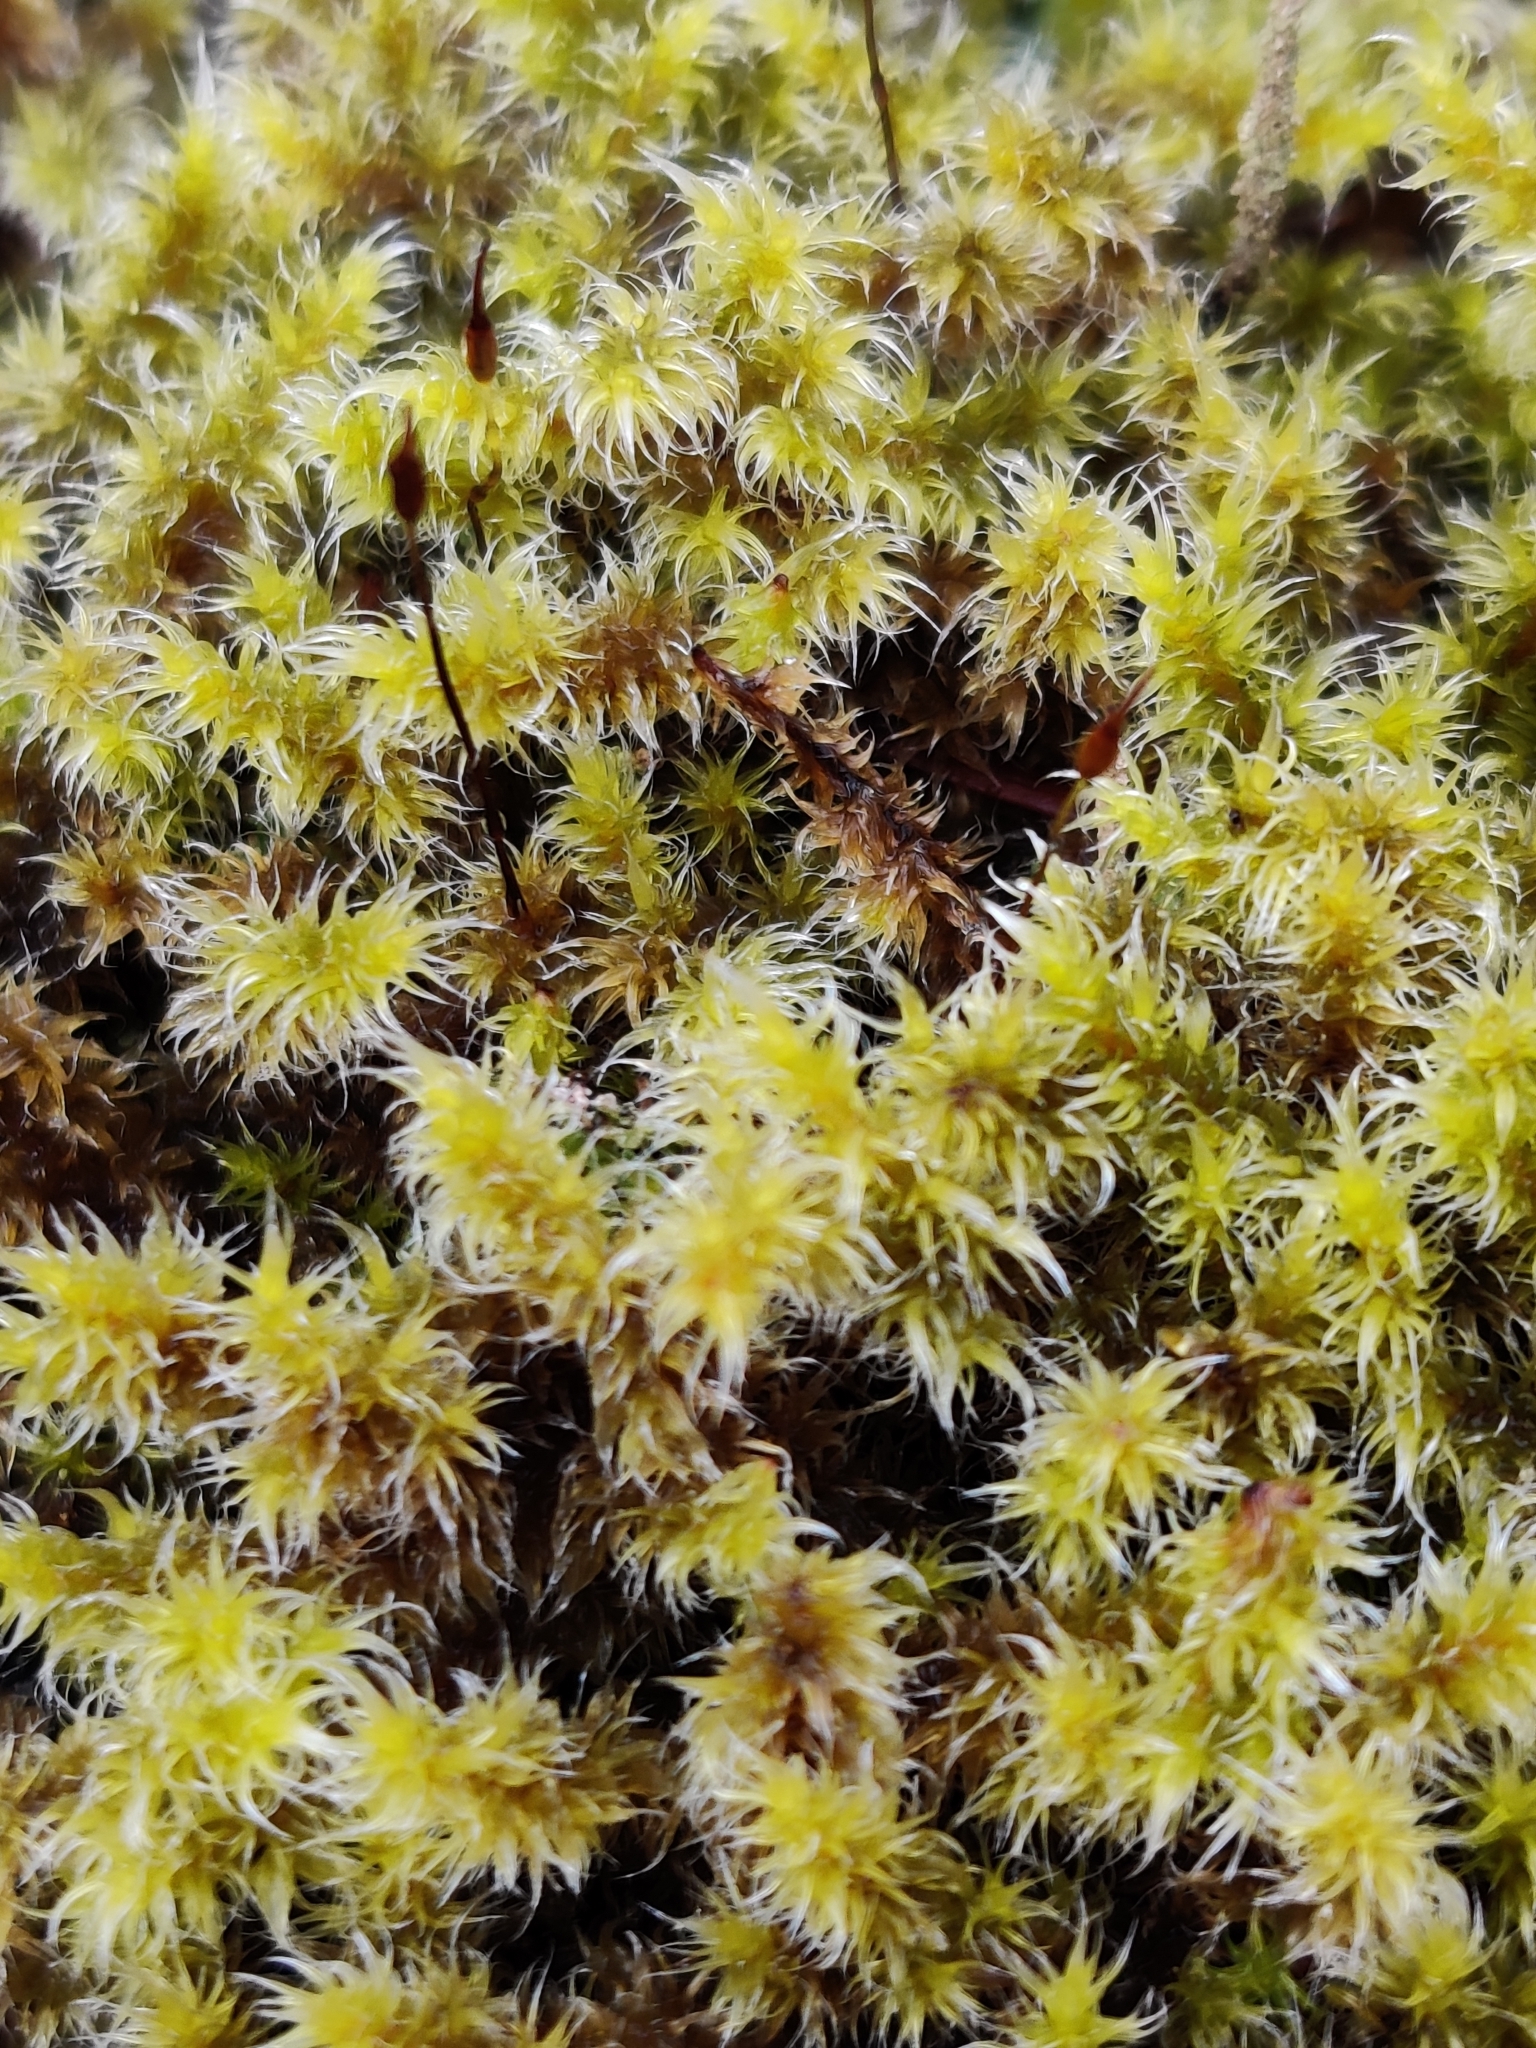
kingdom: Plantae
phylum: Bryophyta
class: Bryopsida
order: Grimmiales
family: Grimmiaceae
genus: Niphotrichum
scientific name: Niphotrichum elongatum
